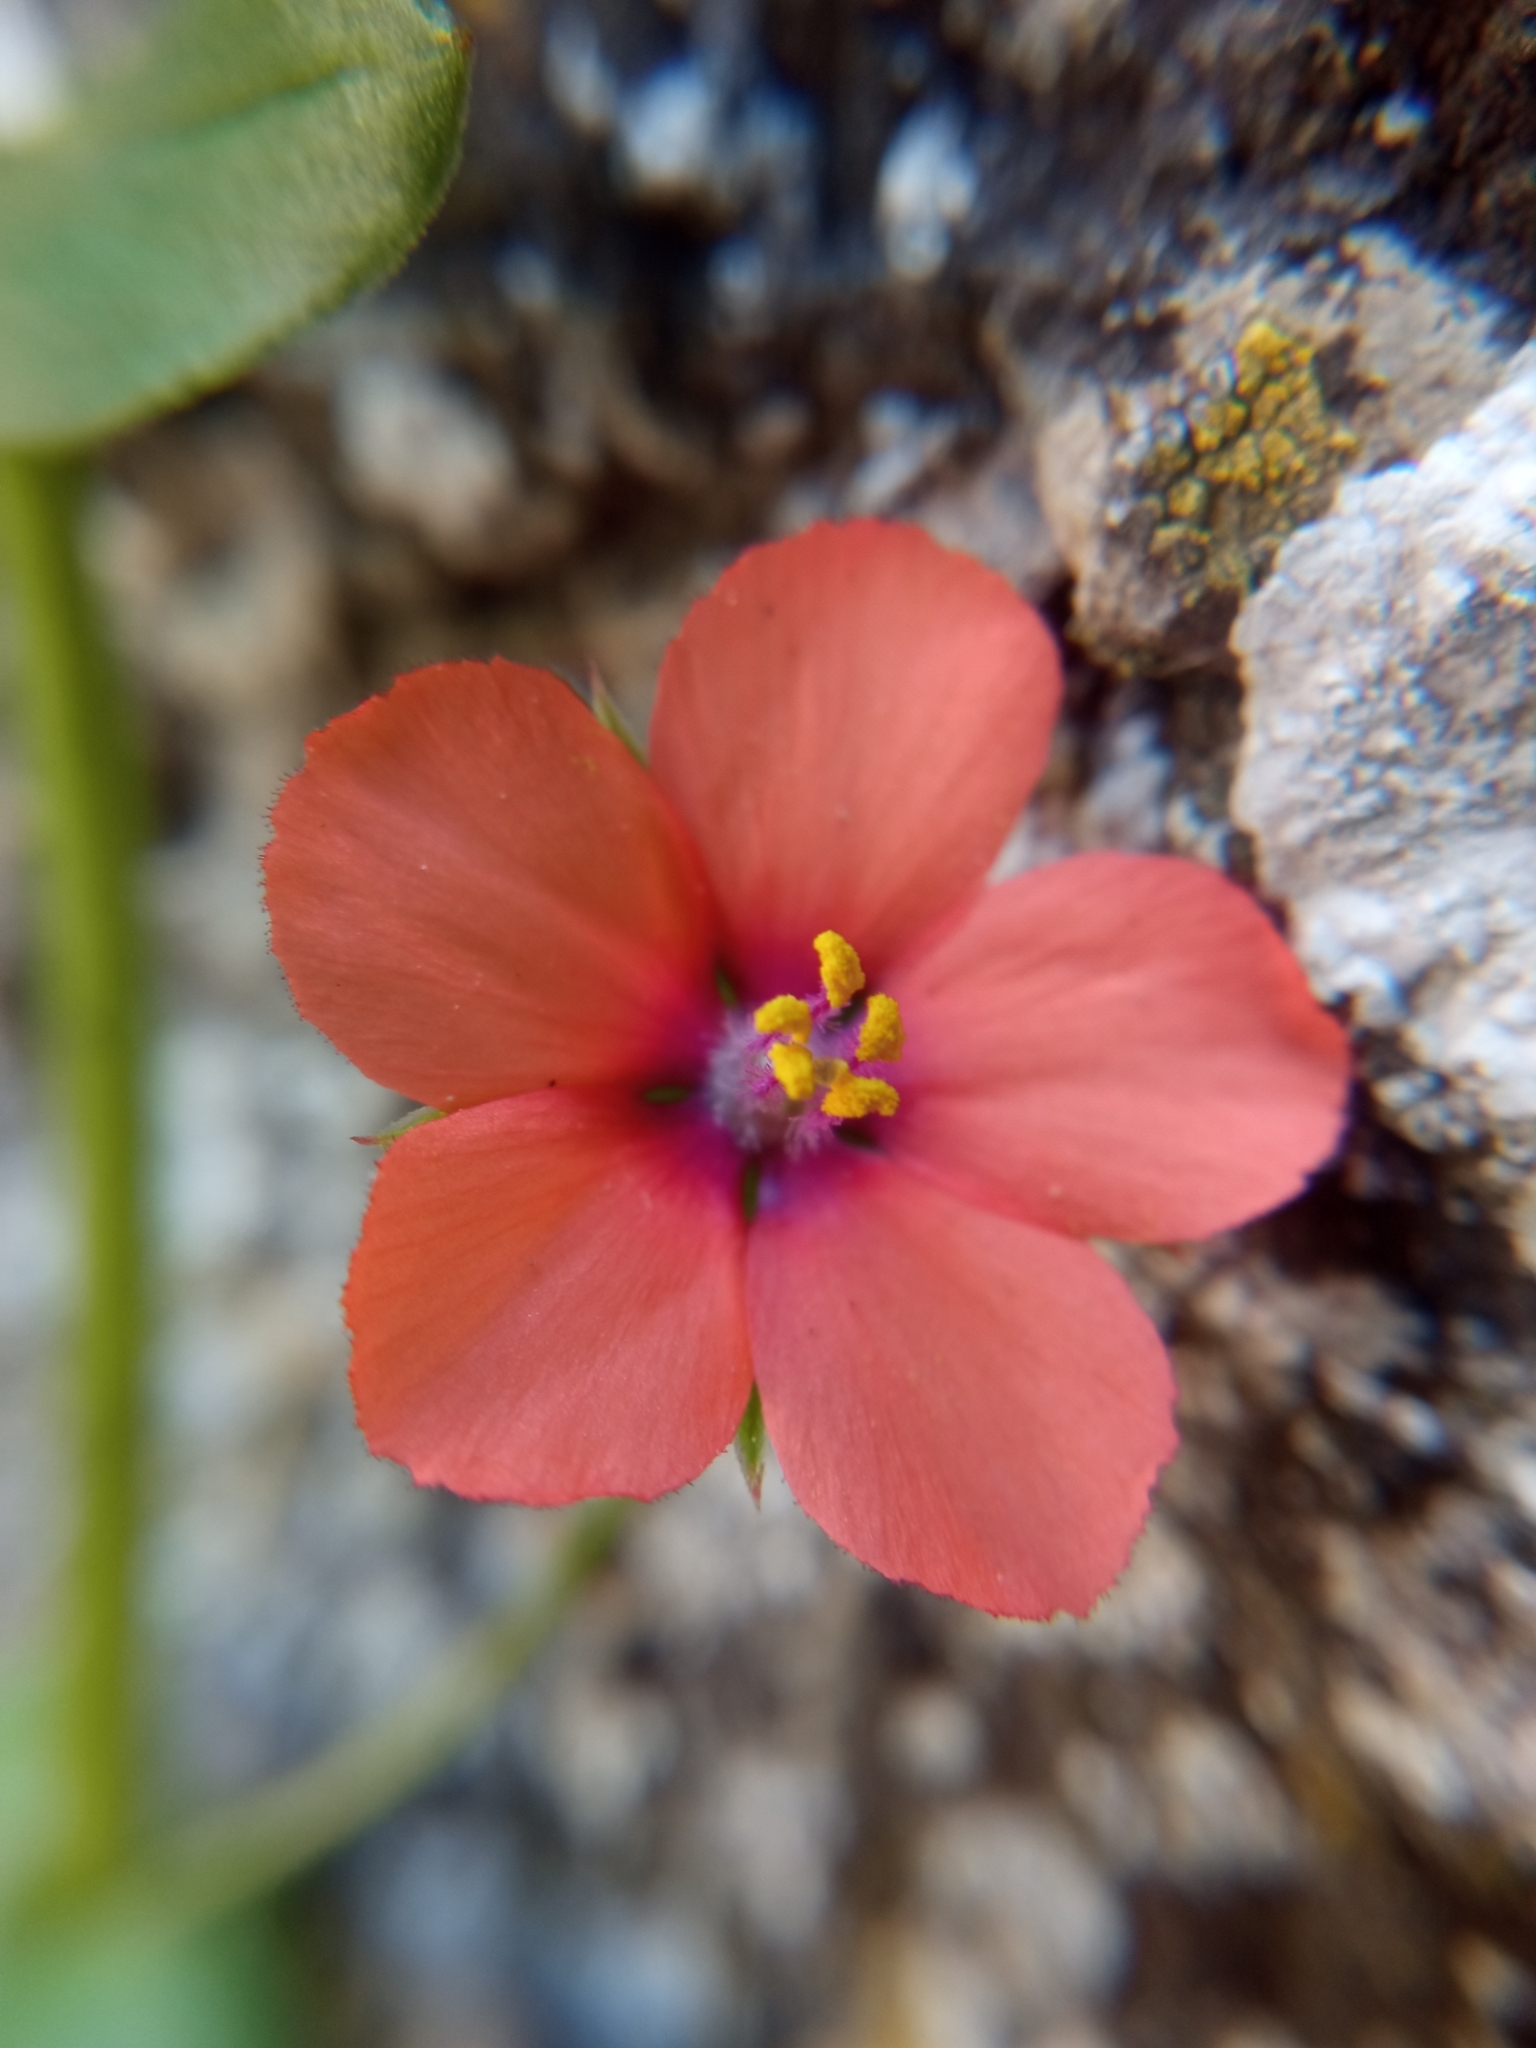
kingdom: Plantae
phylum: Tracheophyta
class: Magnoliopsida
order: Ericales
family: Primulaceae
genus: Lysimachia
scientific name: Lysimachia arvensis
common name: Scarlet pimpernel
